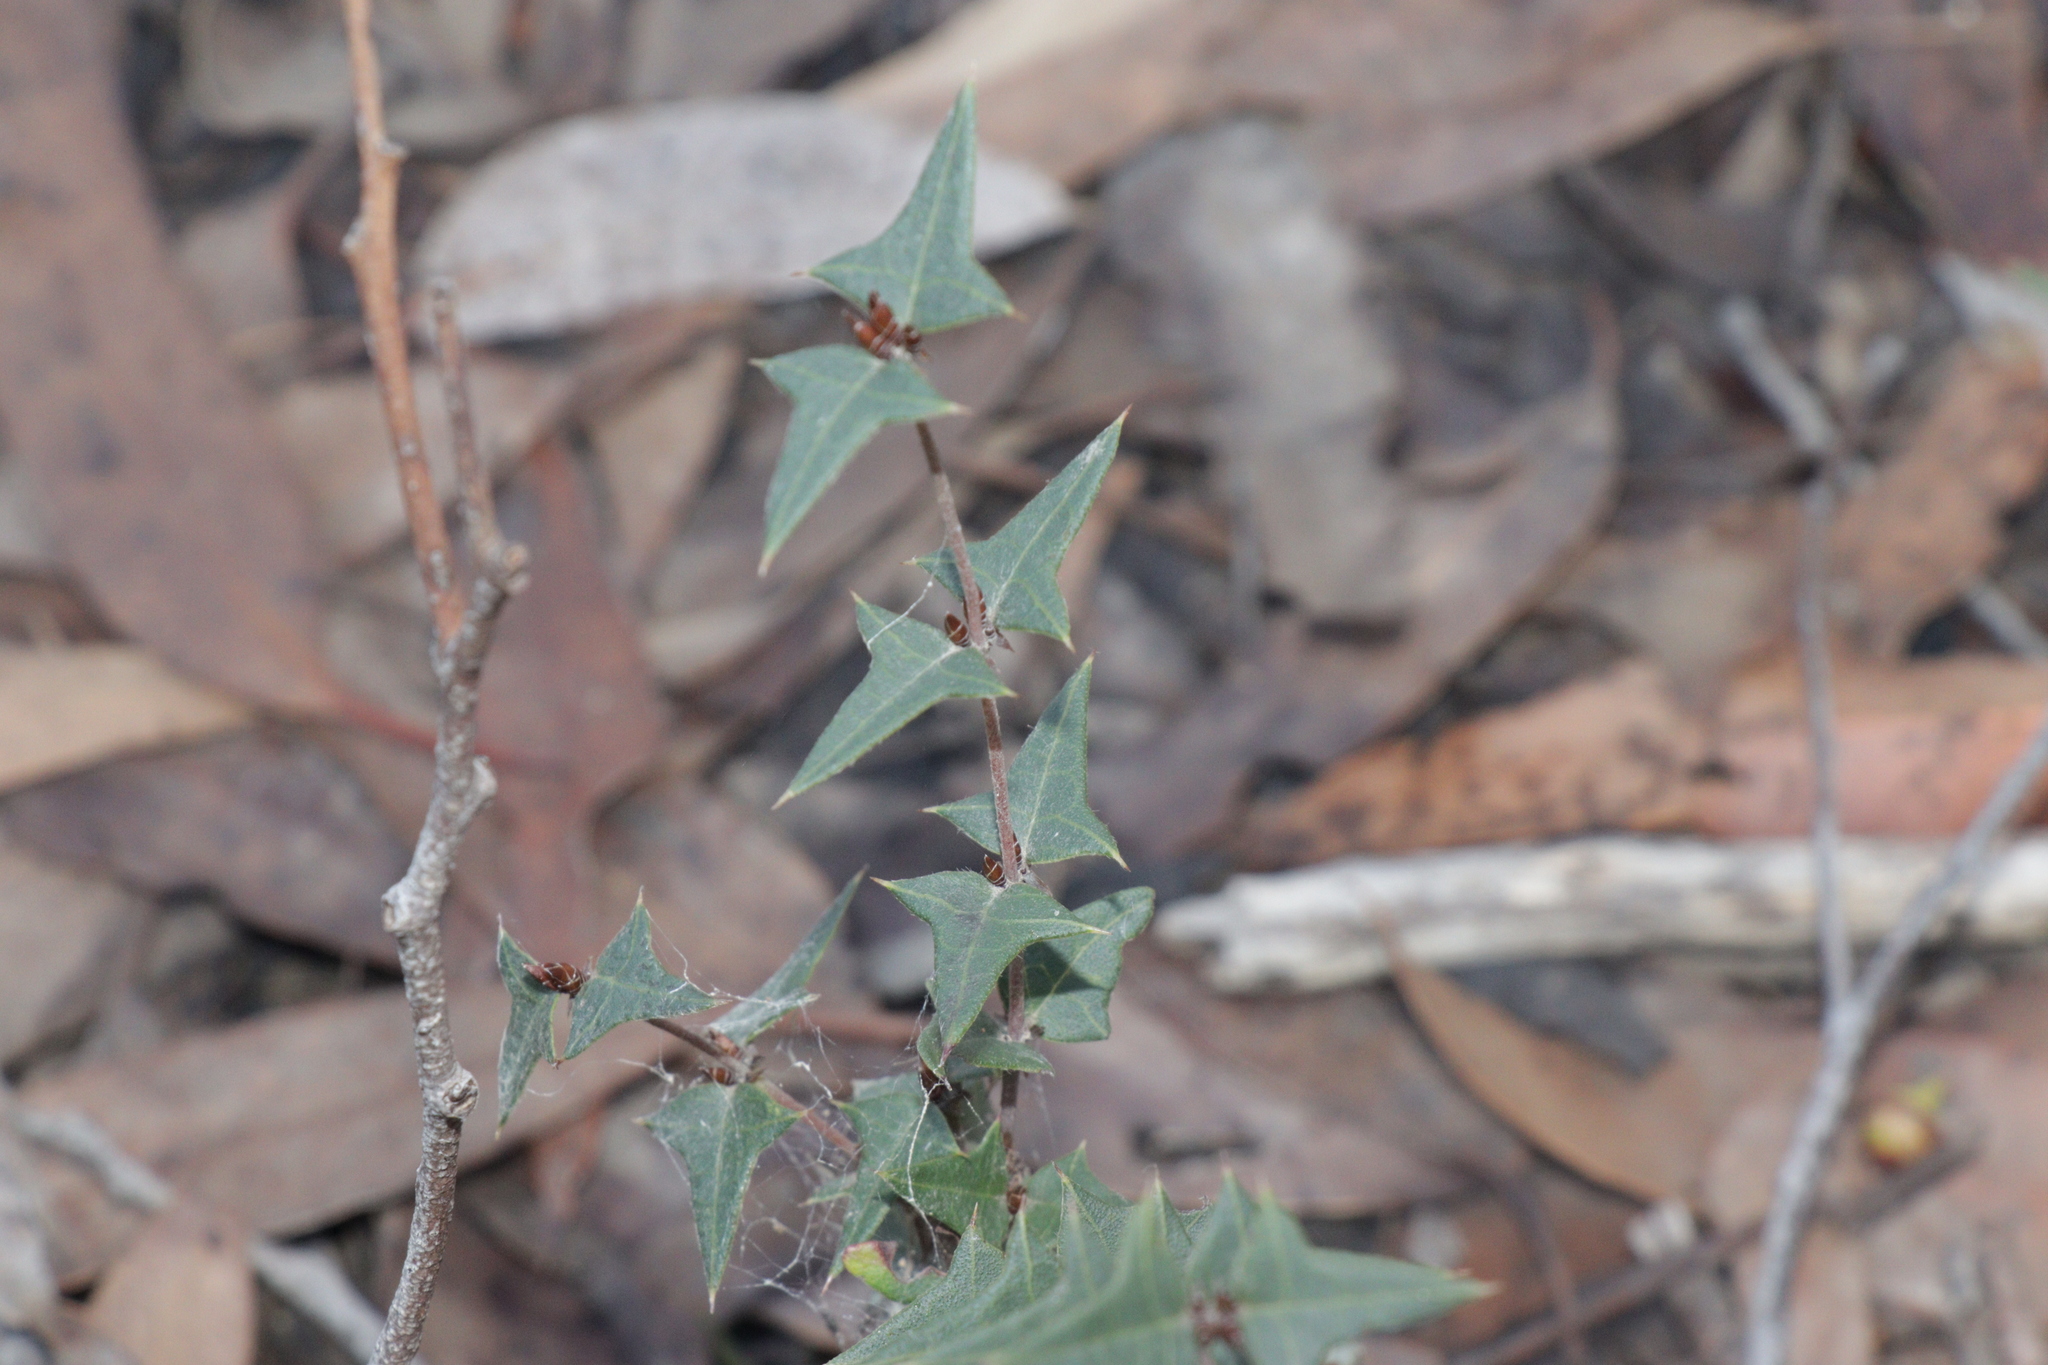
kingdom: Plantae
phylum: Tracheophyta
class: Magnoliopsida
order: Fabales
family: Fabaceae
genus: Platylobium
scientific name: Platylobium obtusangulum
